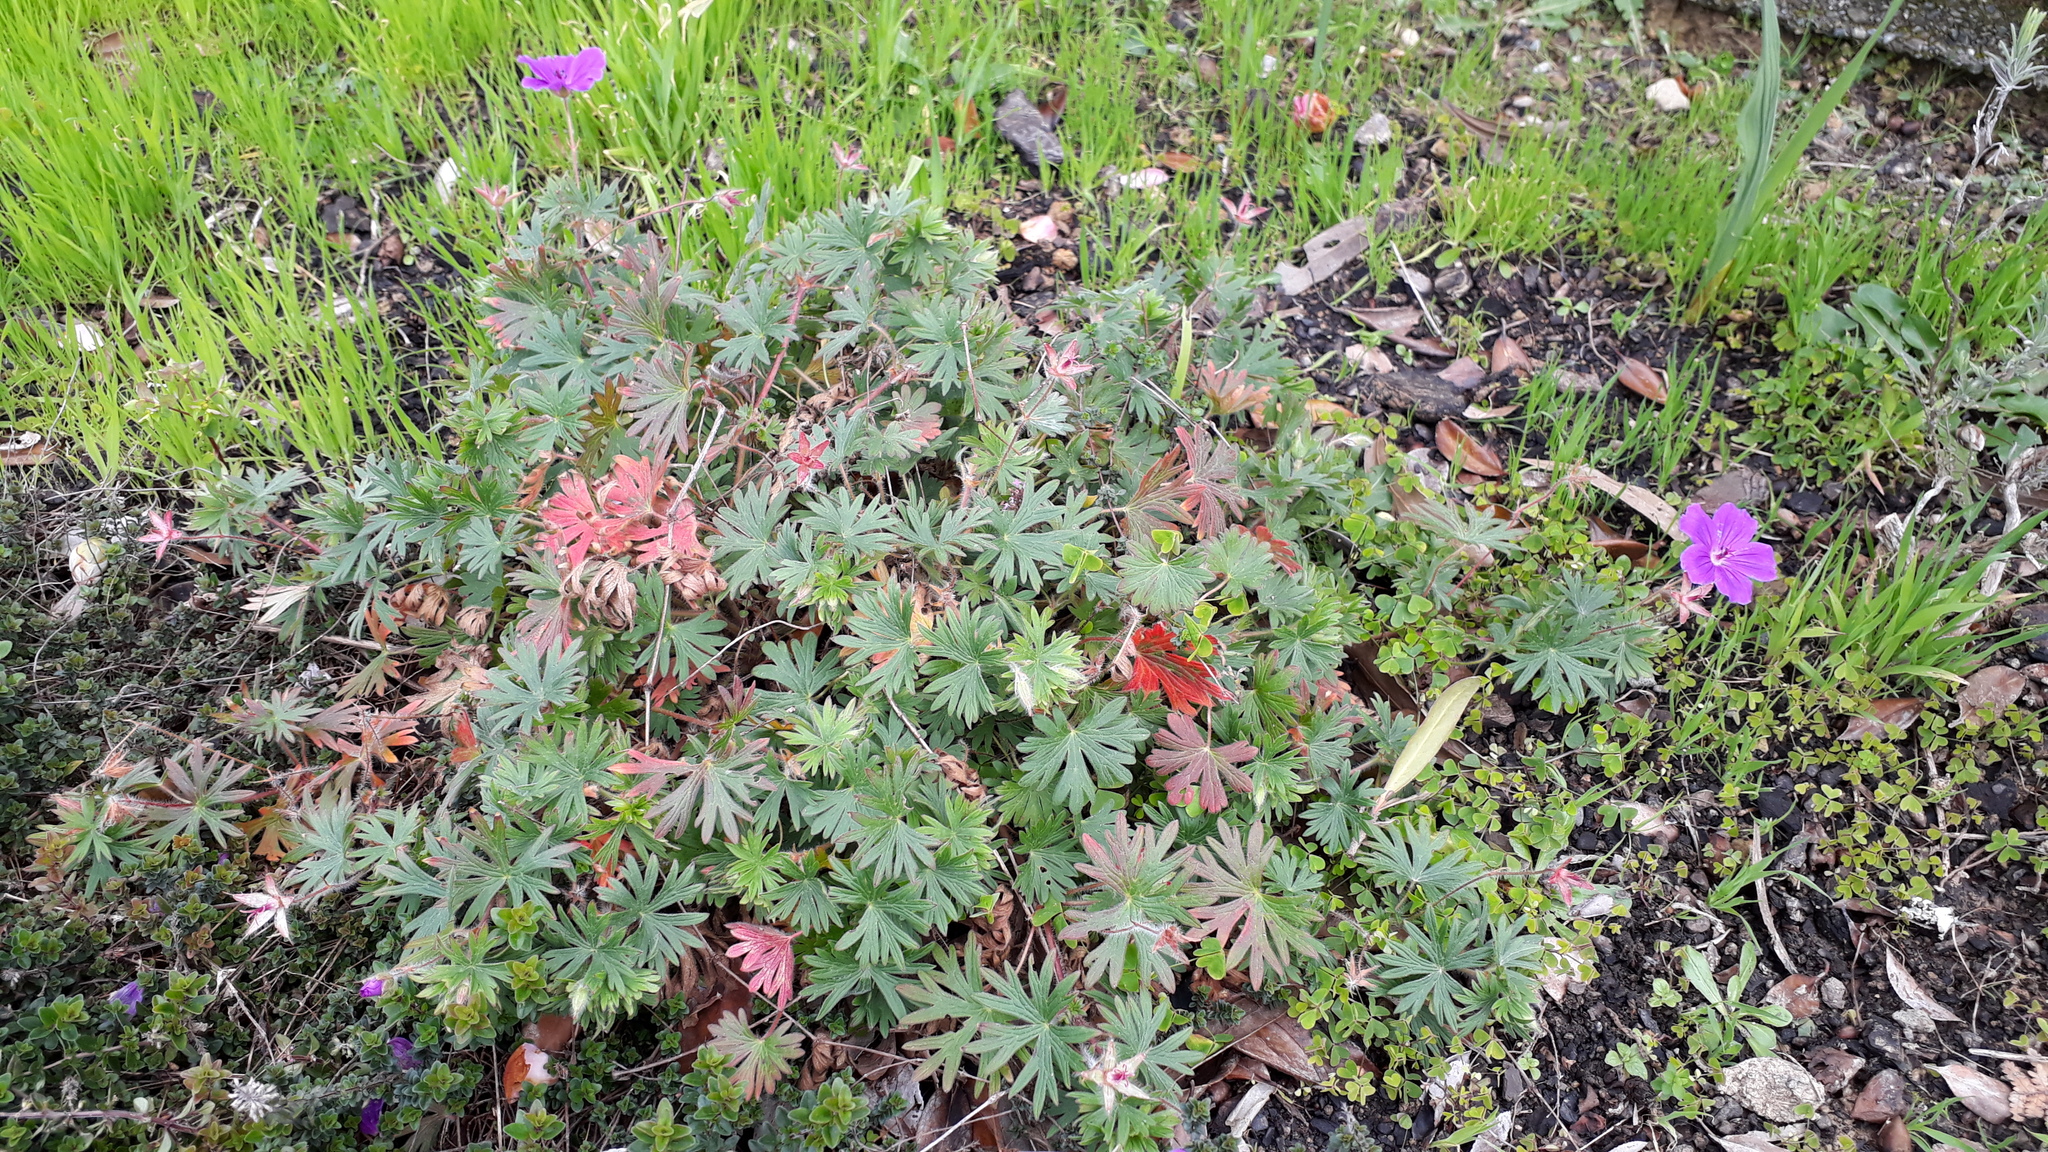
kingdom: Plantae
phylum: Tracheophyta
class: Magnoliopsida
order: Geraniales
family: Geraniaceae
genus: Geranium
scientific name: Geranium incanum
